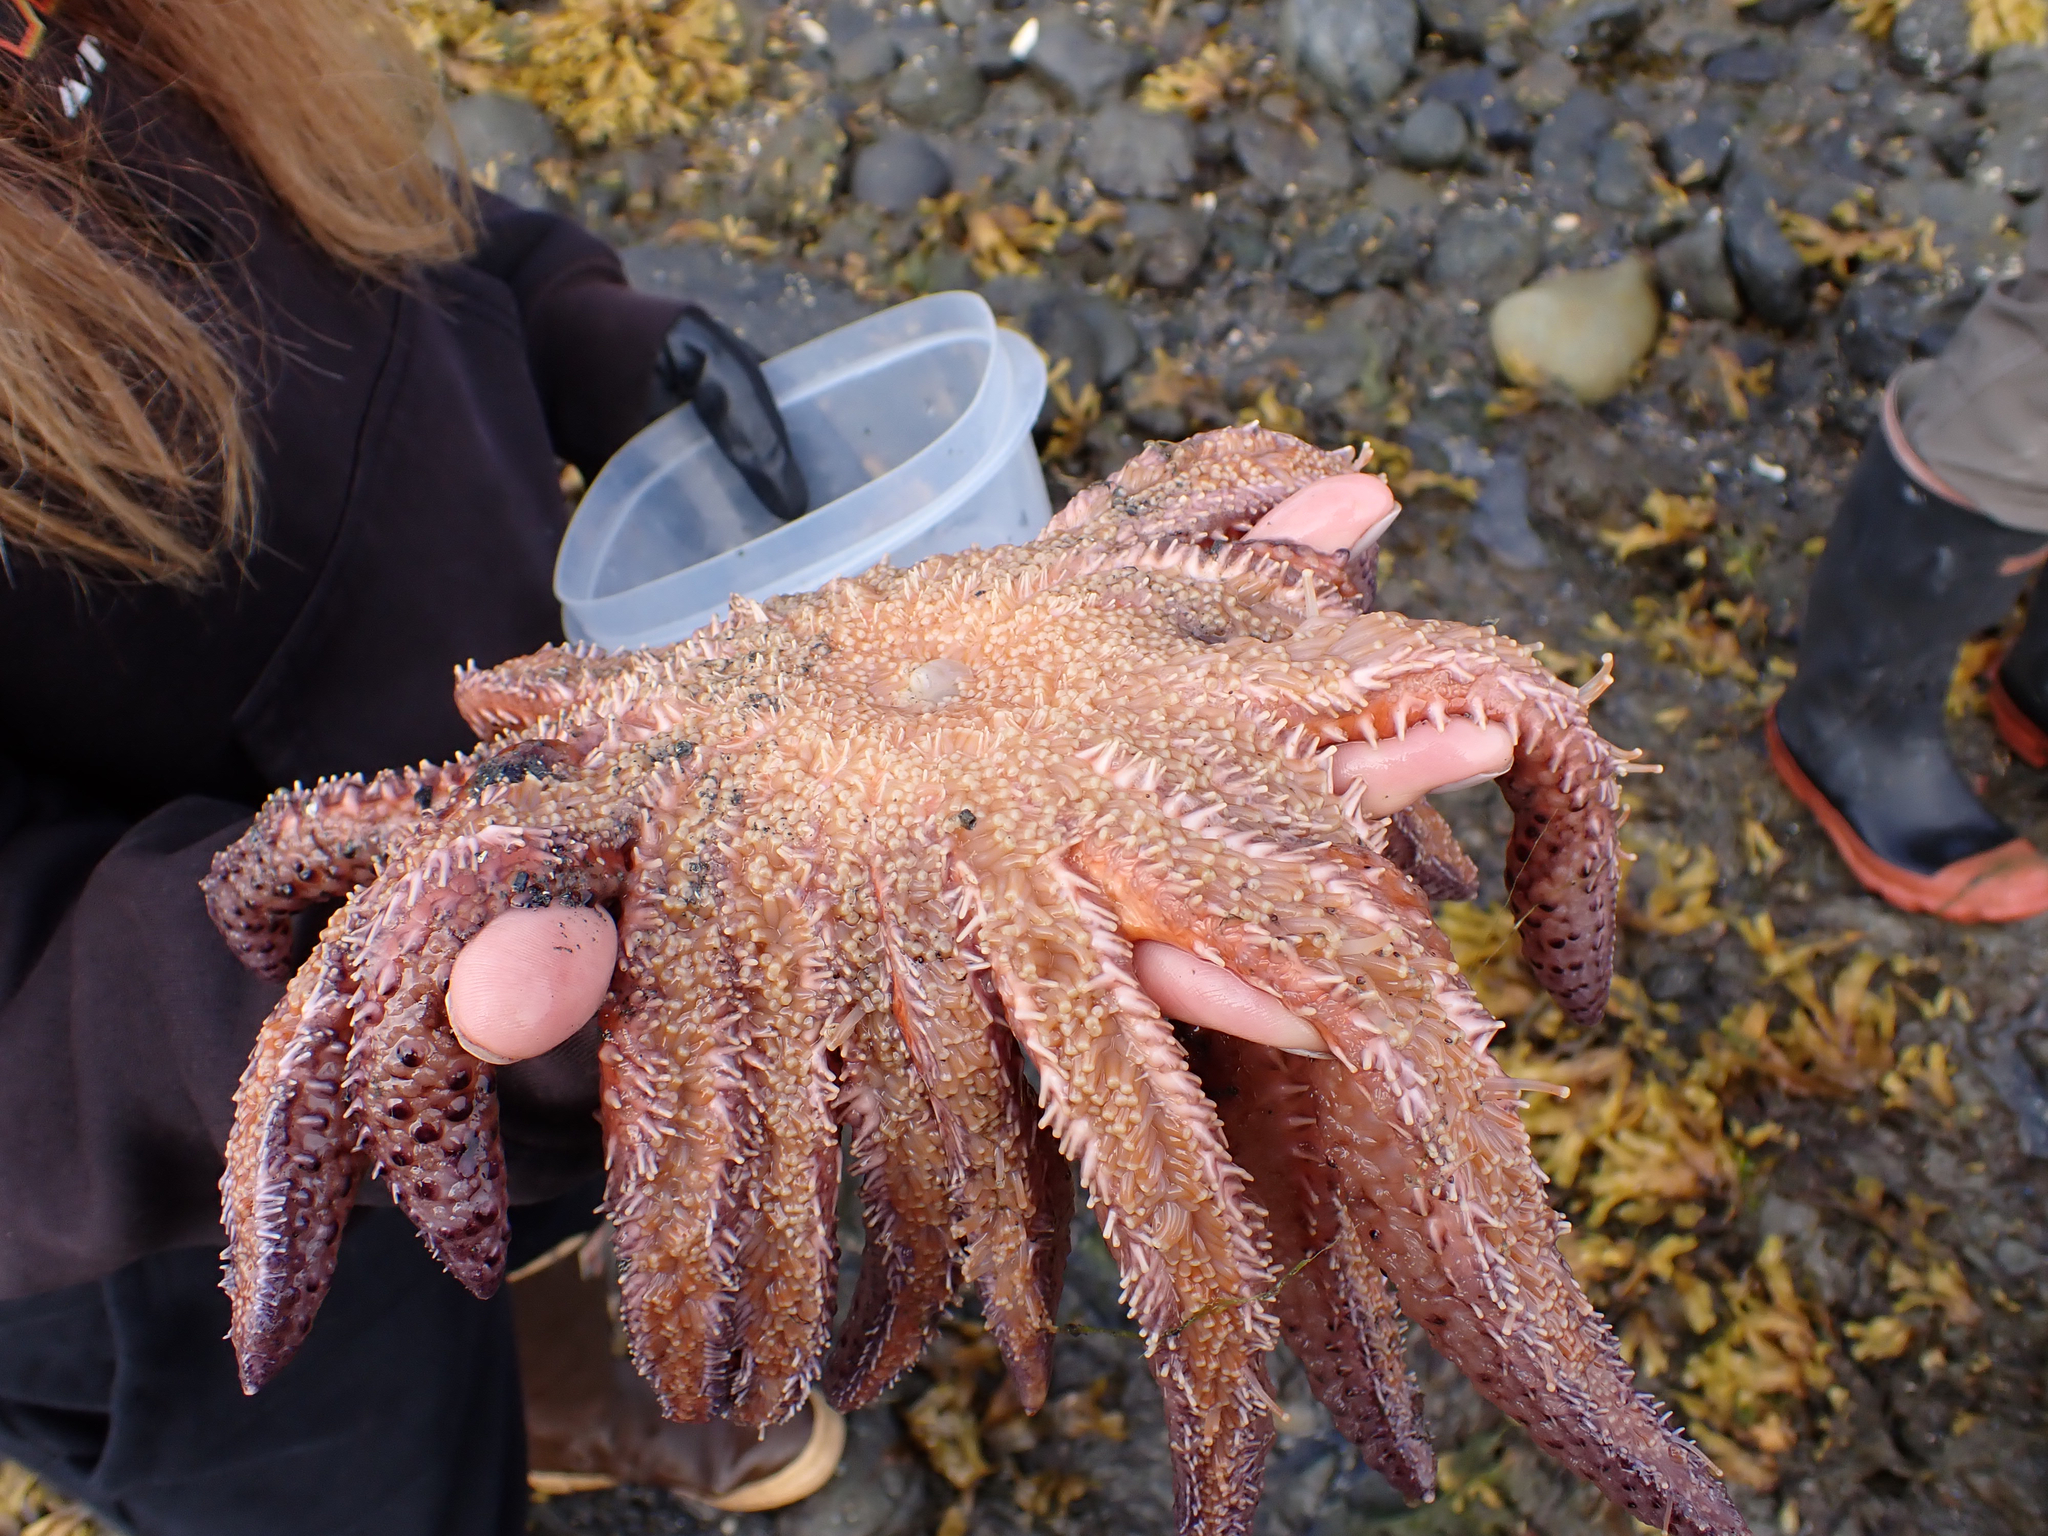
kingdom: Animalia
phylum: Echinodermata
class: Asteroidea
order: Forcipulatida
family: Asteriidae
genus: Pycnopodia
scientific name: Pycnopodia helianthoides
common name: Rag mop
